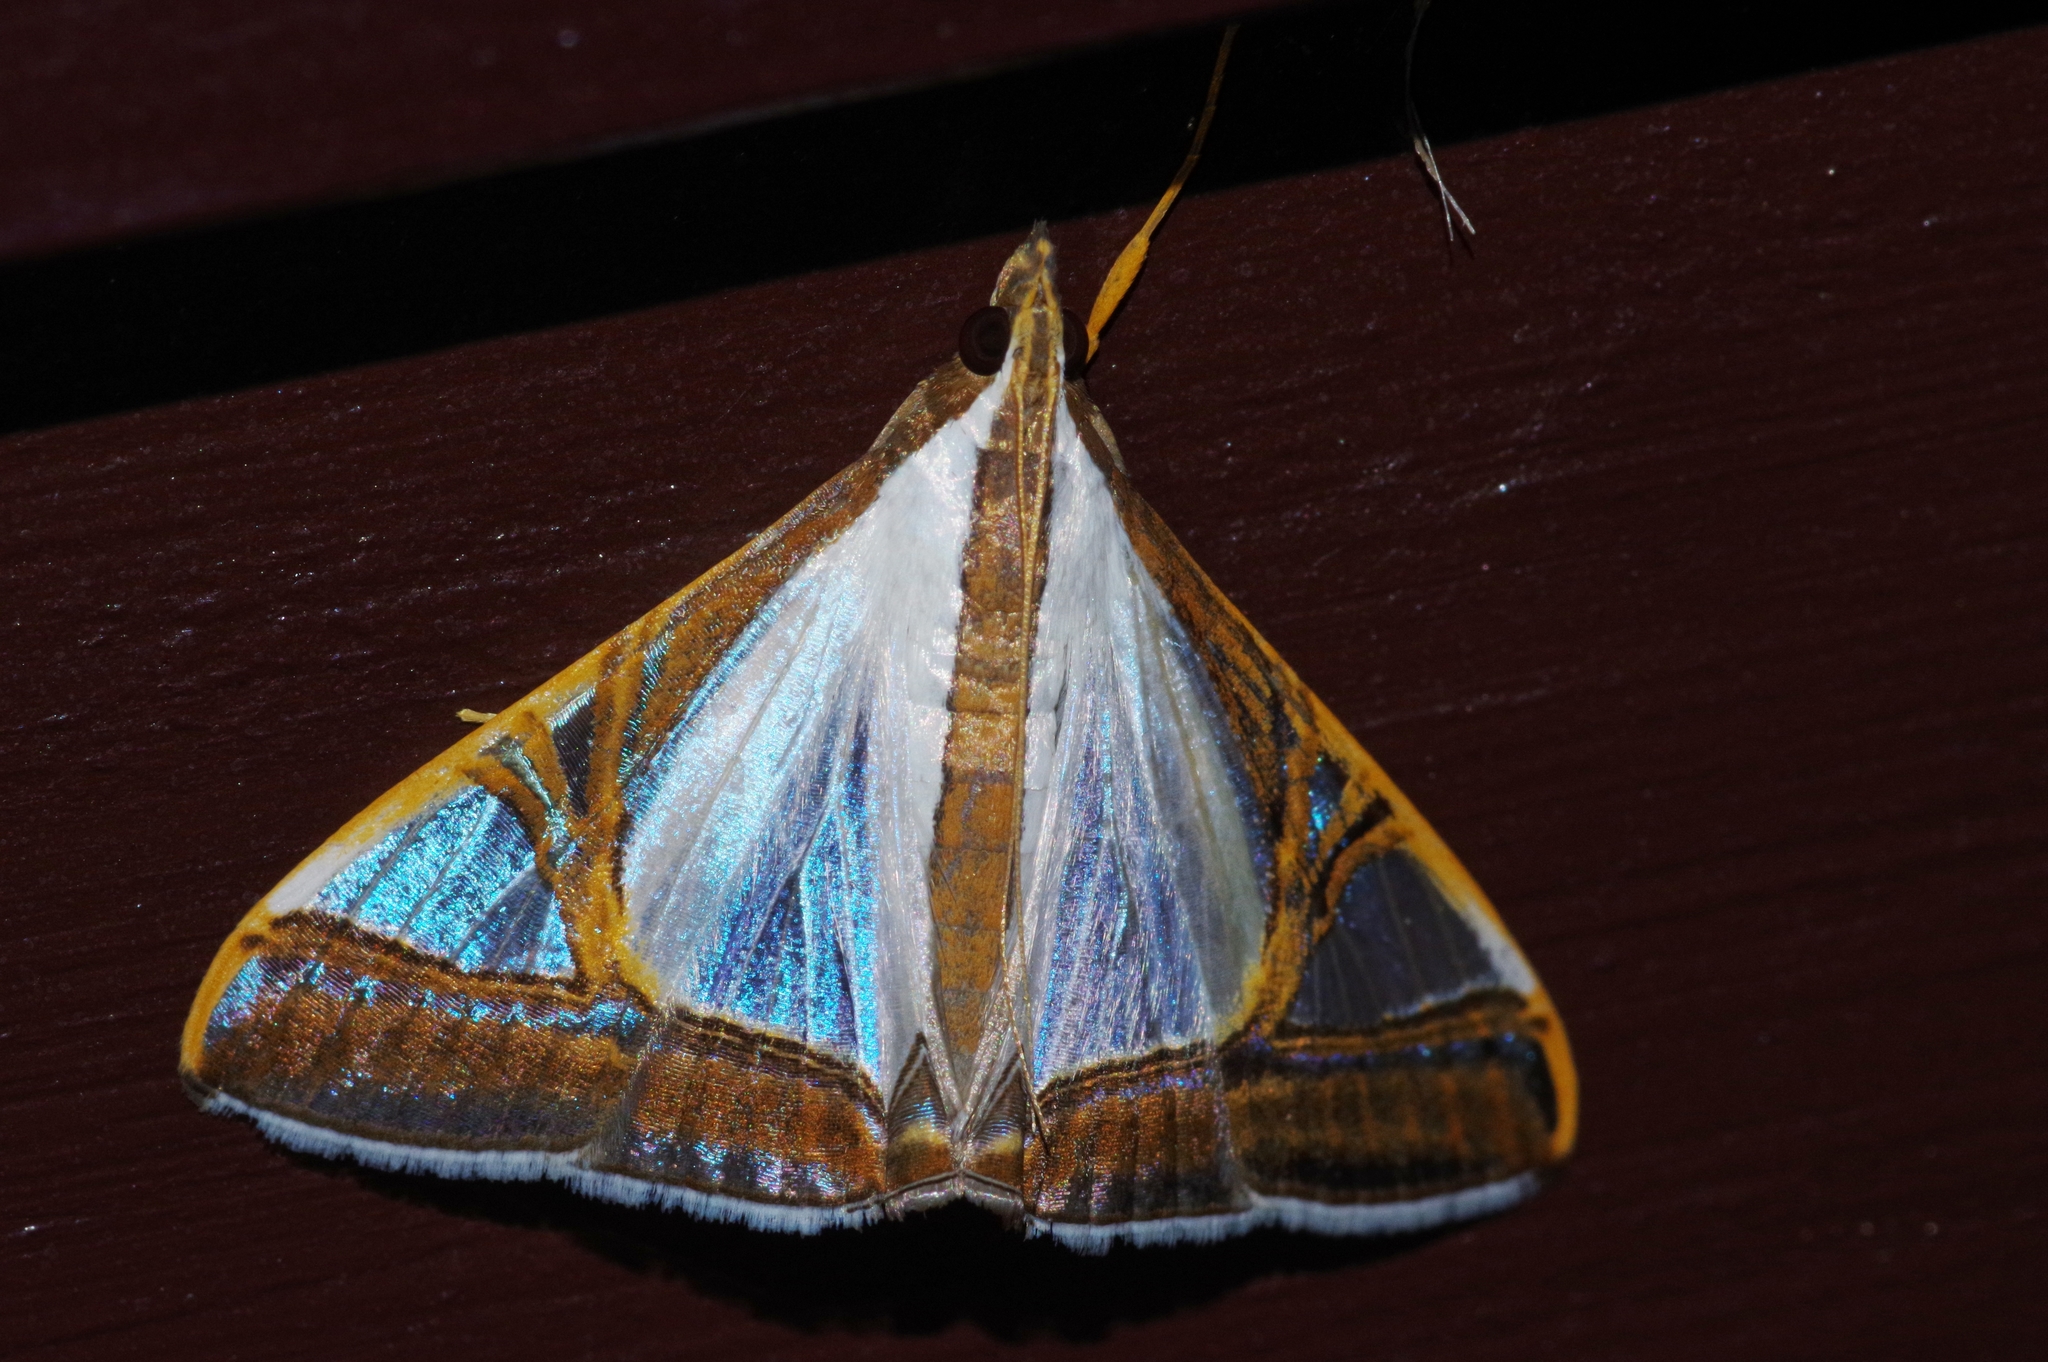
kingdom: Animalia
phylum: Arthropoda
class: Insecta
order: Lepidoptera
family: Crambidae
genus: Agrioglypta
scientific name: Agrioglypta eurytusalis
